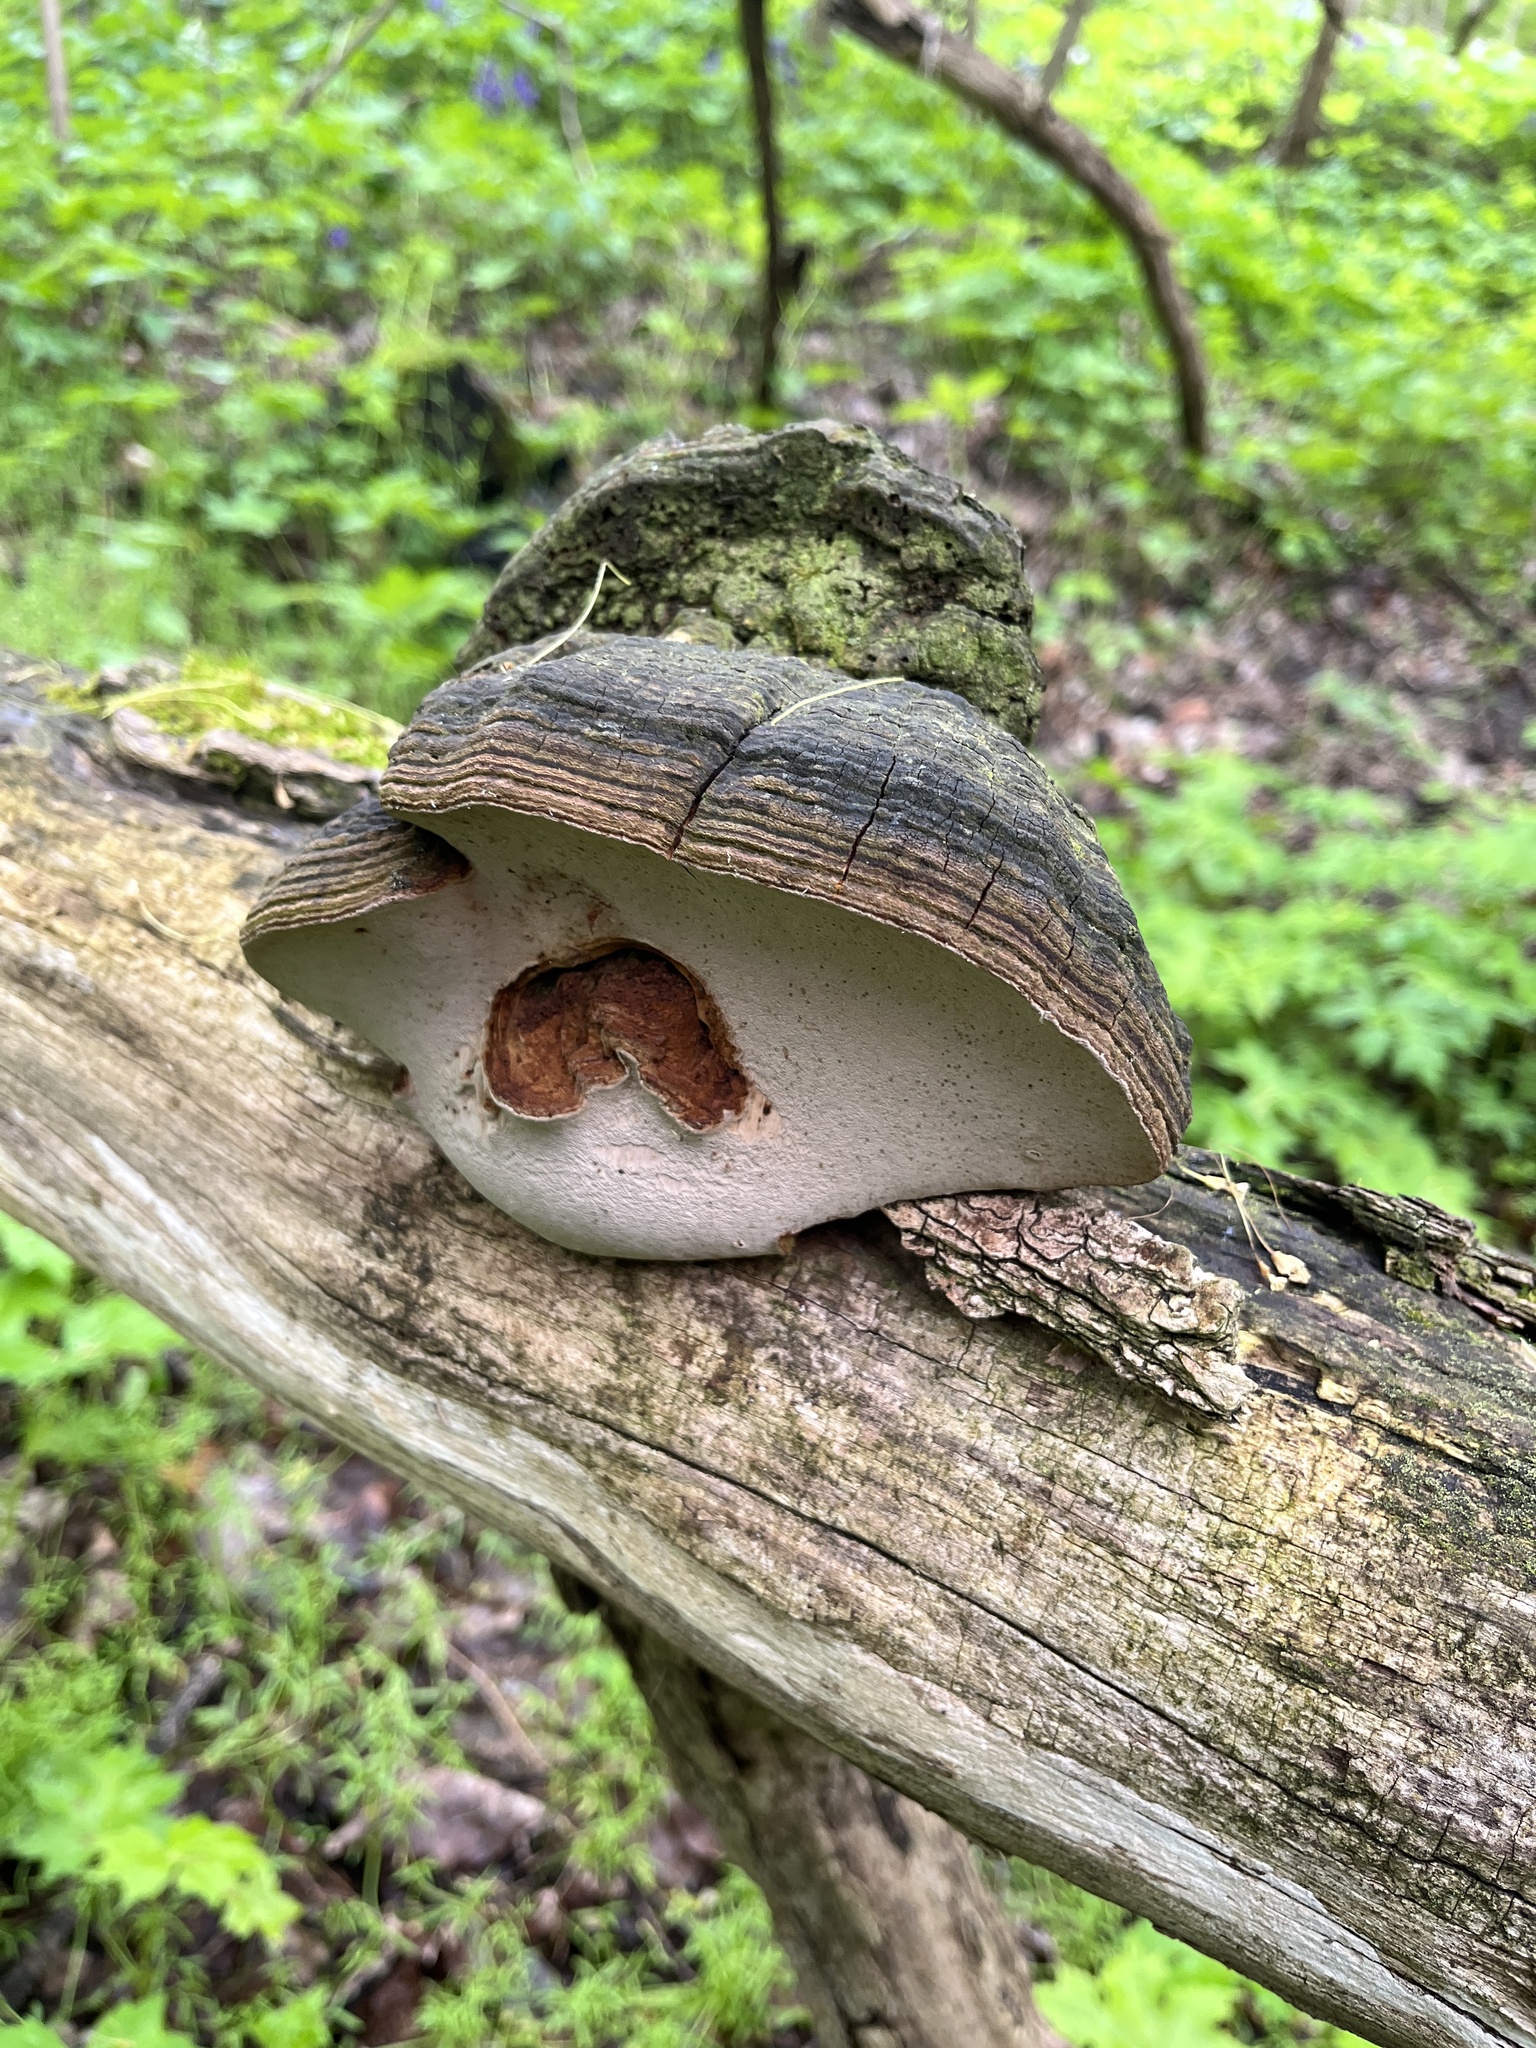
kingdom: Fungi
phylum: Basidiomycota
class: Agaricomycetes
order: Hymenochaetales
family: Hymenochaetaceae
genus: Phellinus
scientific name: Phellinus robiniae
